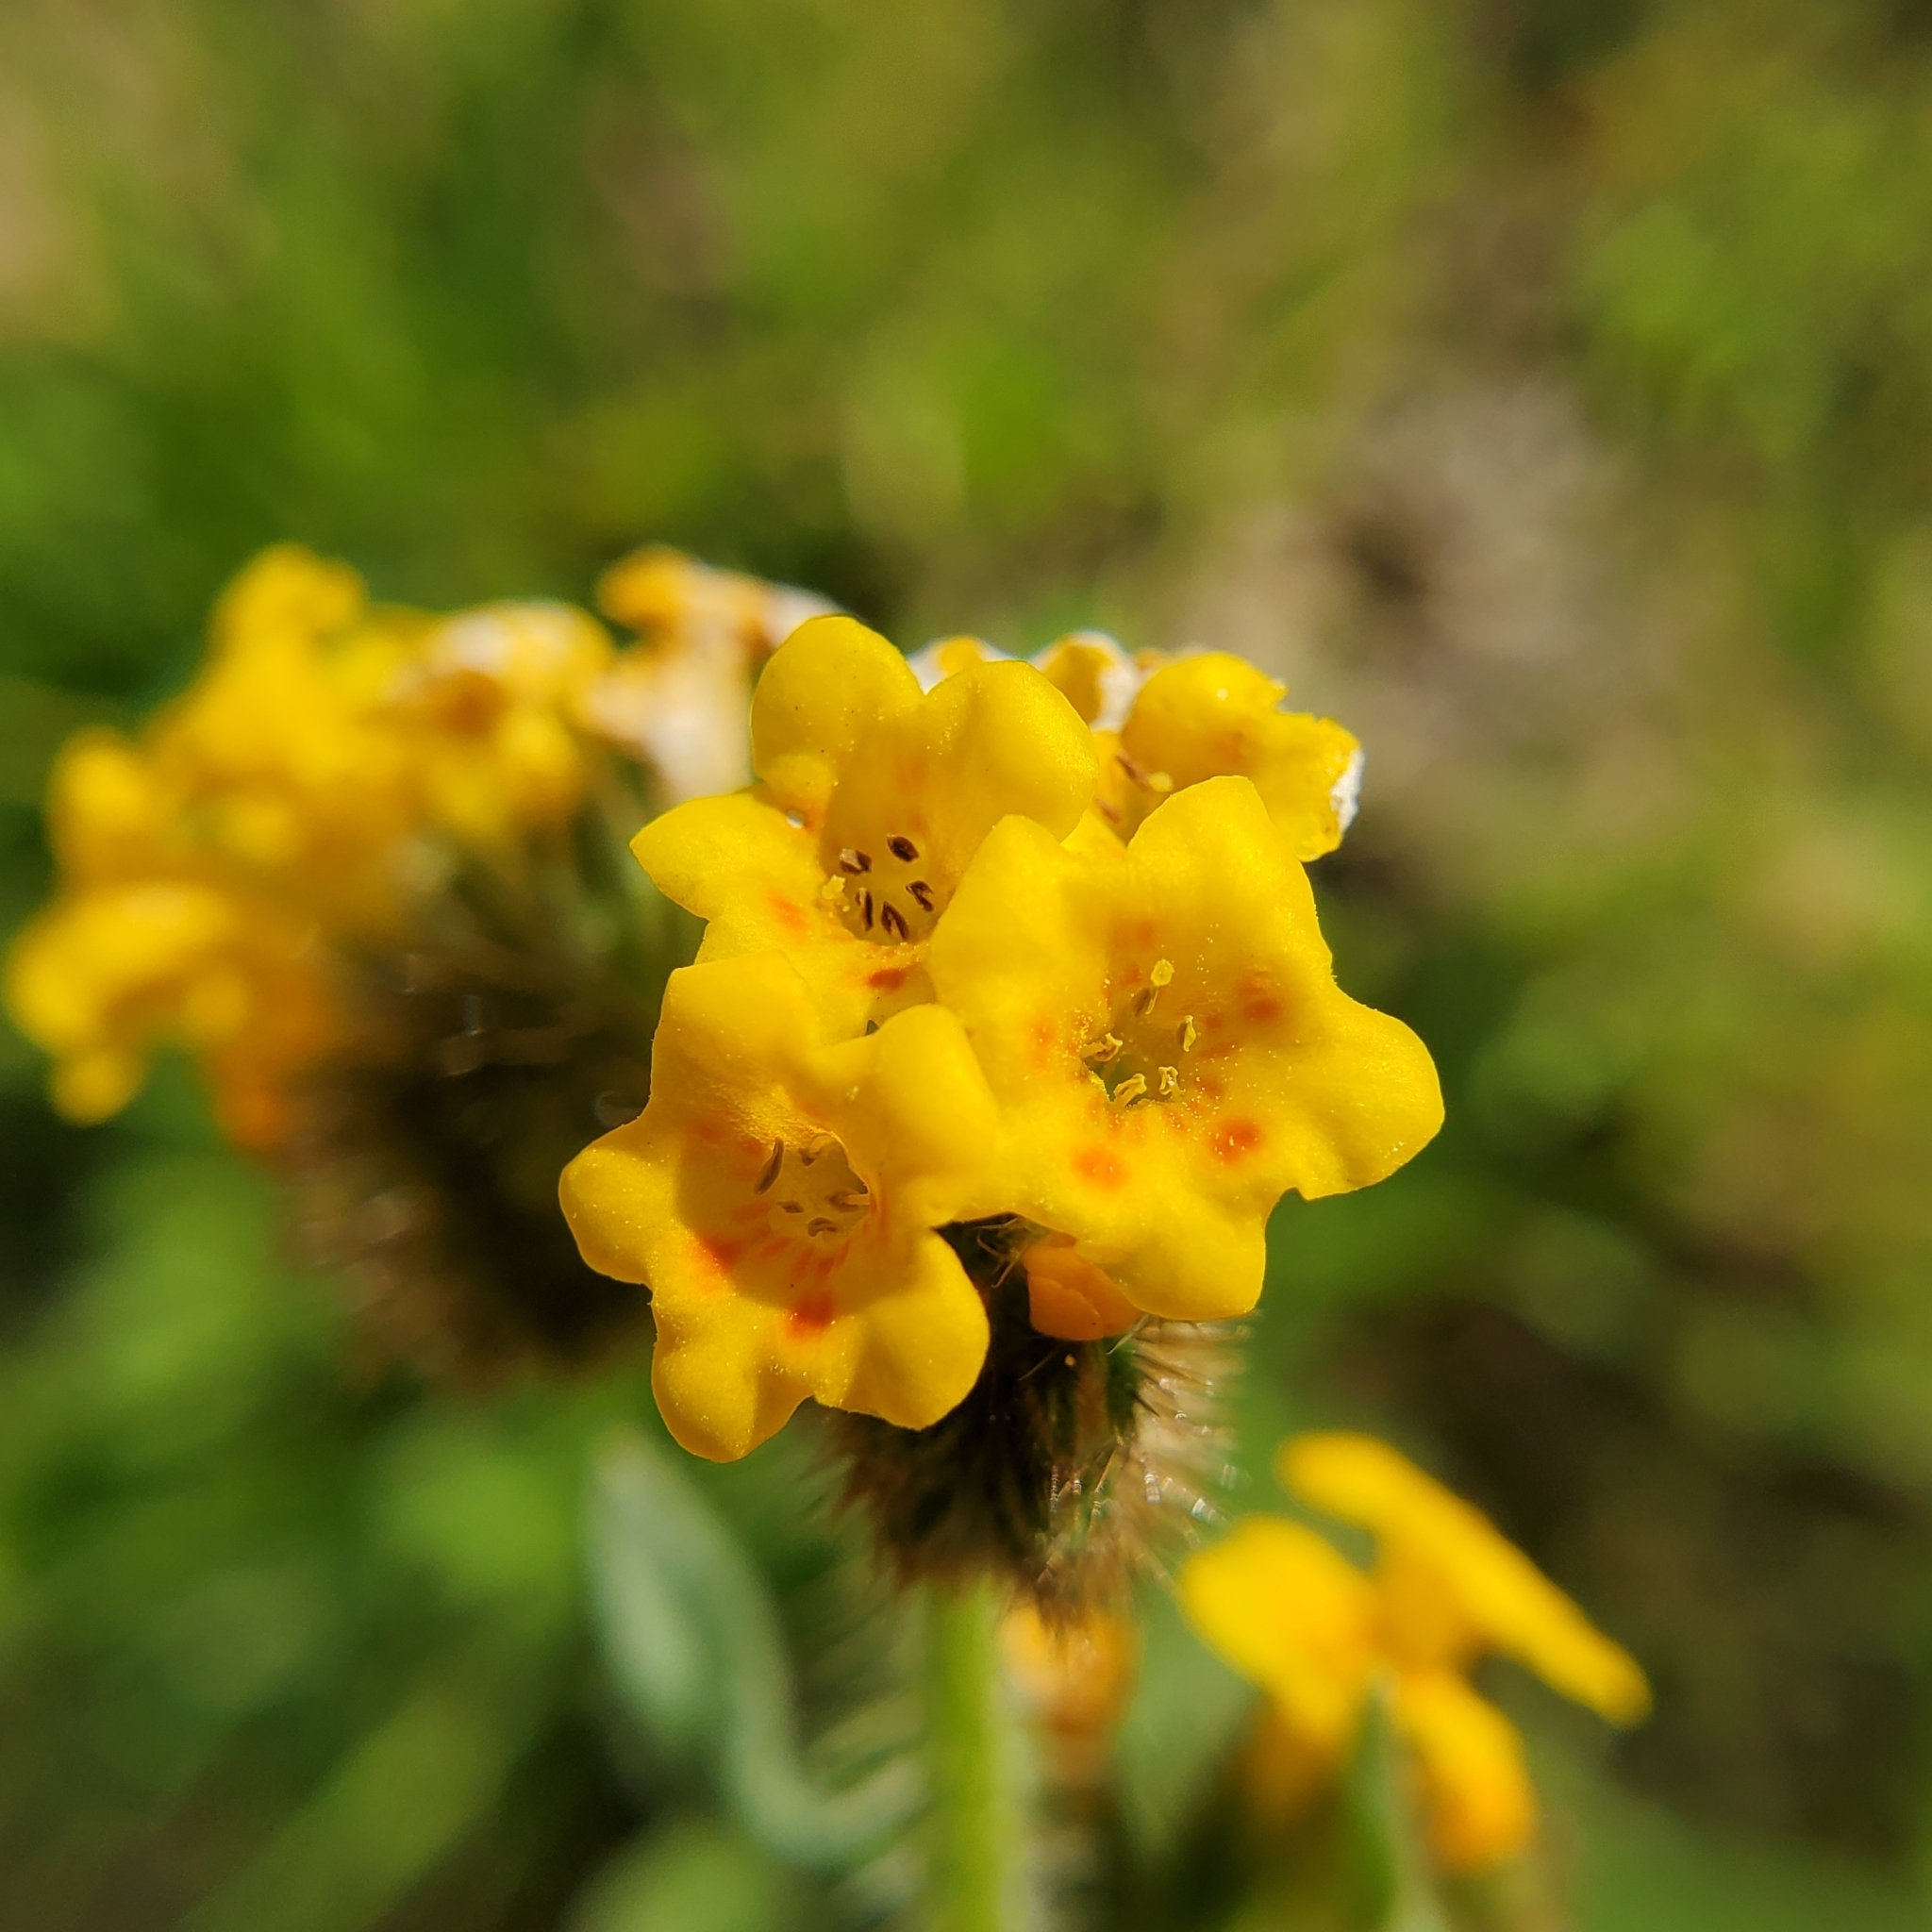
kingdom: Plantae
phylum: Tracheophyta
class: Magnoliopsida
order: Boraginales
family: Boraginaceae
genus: Amsinckia
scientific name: Amsinckia menziesii
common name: Menzies' fiddleneck
